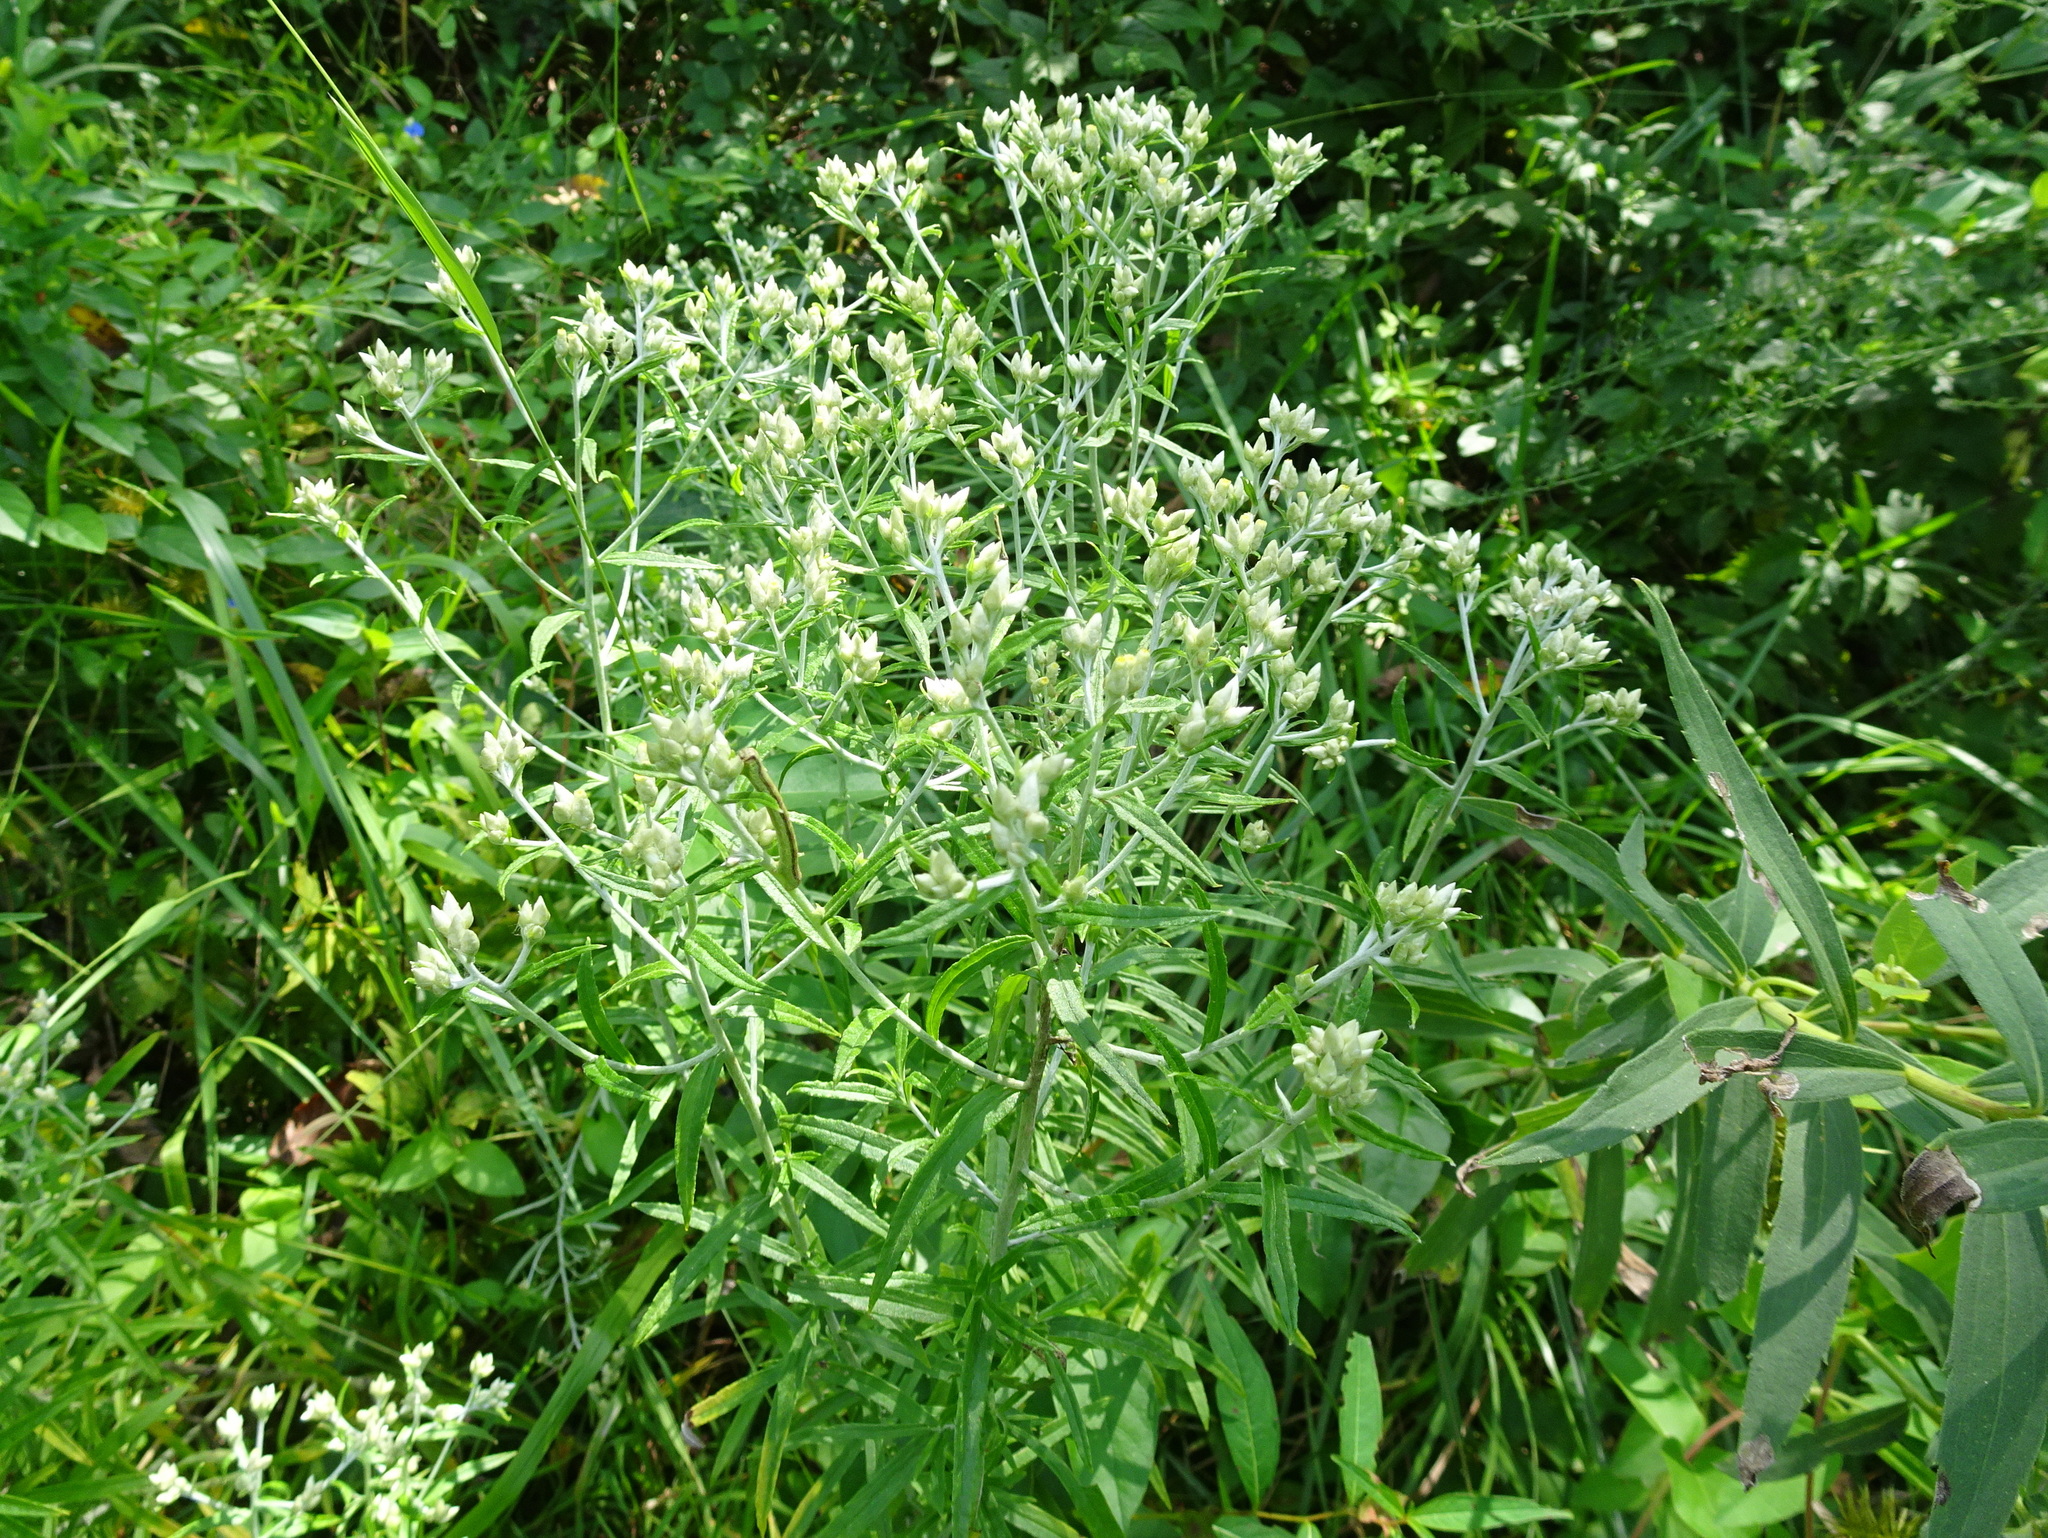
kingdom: Plantae
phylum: Tracheophyta
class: Magnoliopsida
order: Asterales
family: Asteraceae
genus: Pseudognaphalium
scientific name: Pseudognaphalium obtusifolium
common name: Eastern rabbit-tobacco
